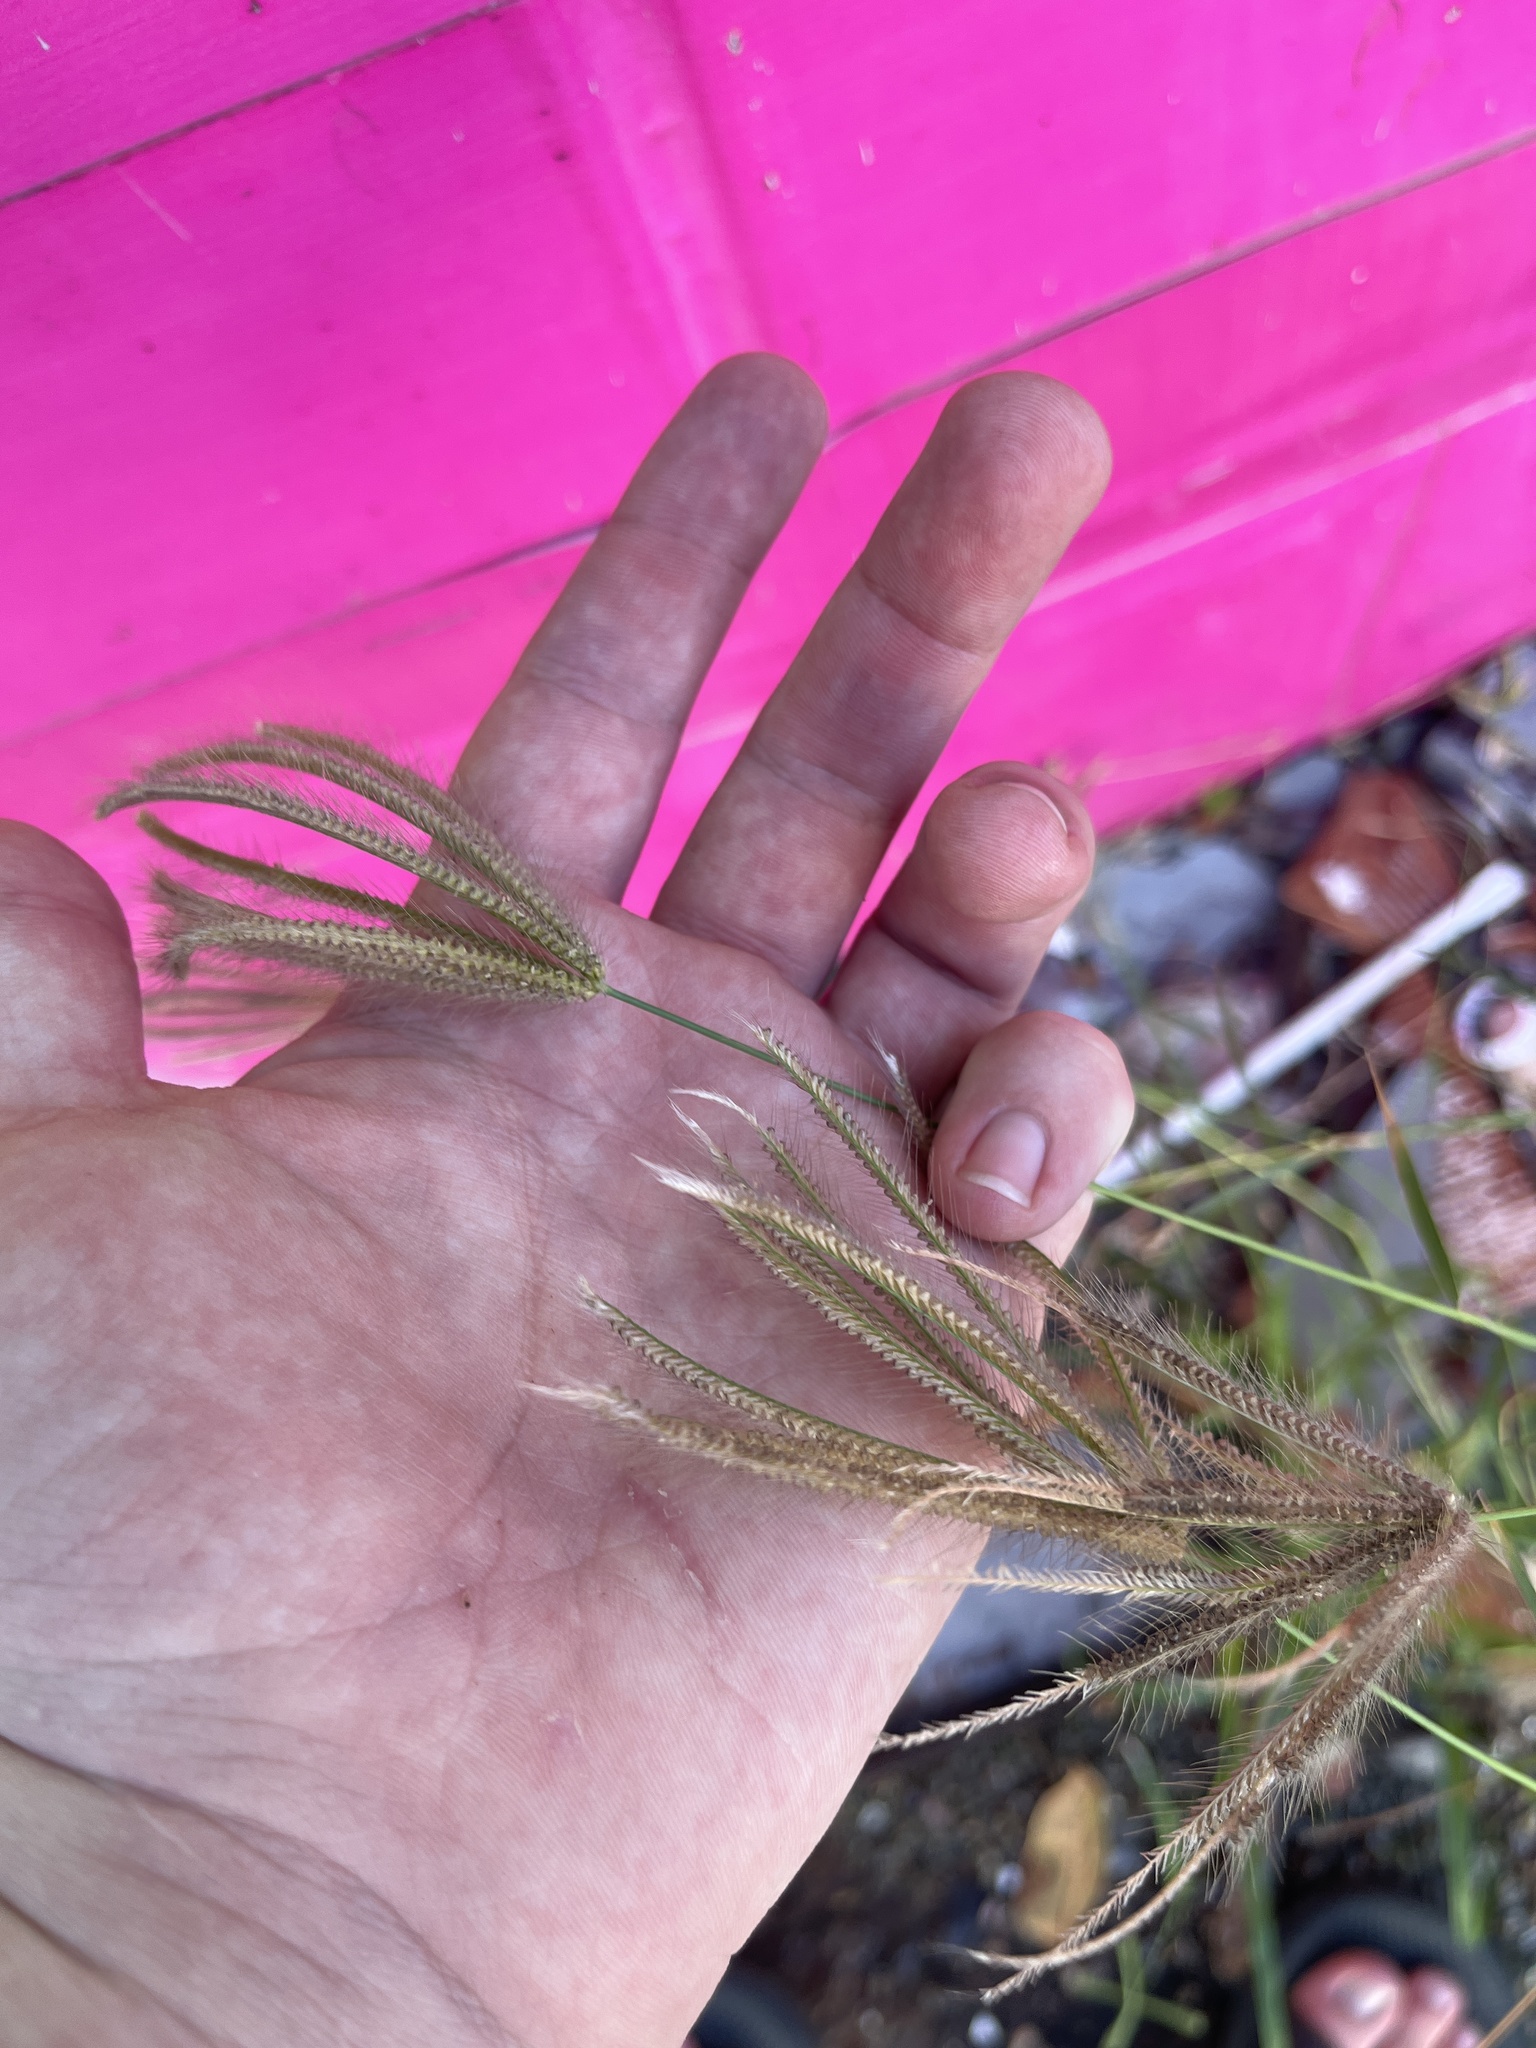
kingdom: Plantae
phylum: Tracheophyta
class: Liliopsida
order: Poales
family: Poaceae
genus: Chloris
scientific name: Chloris barbata
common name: Swollen fingergrass
